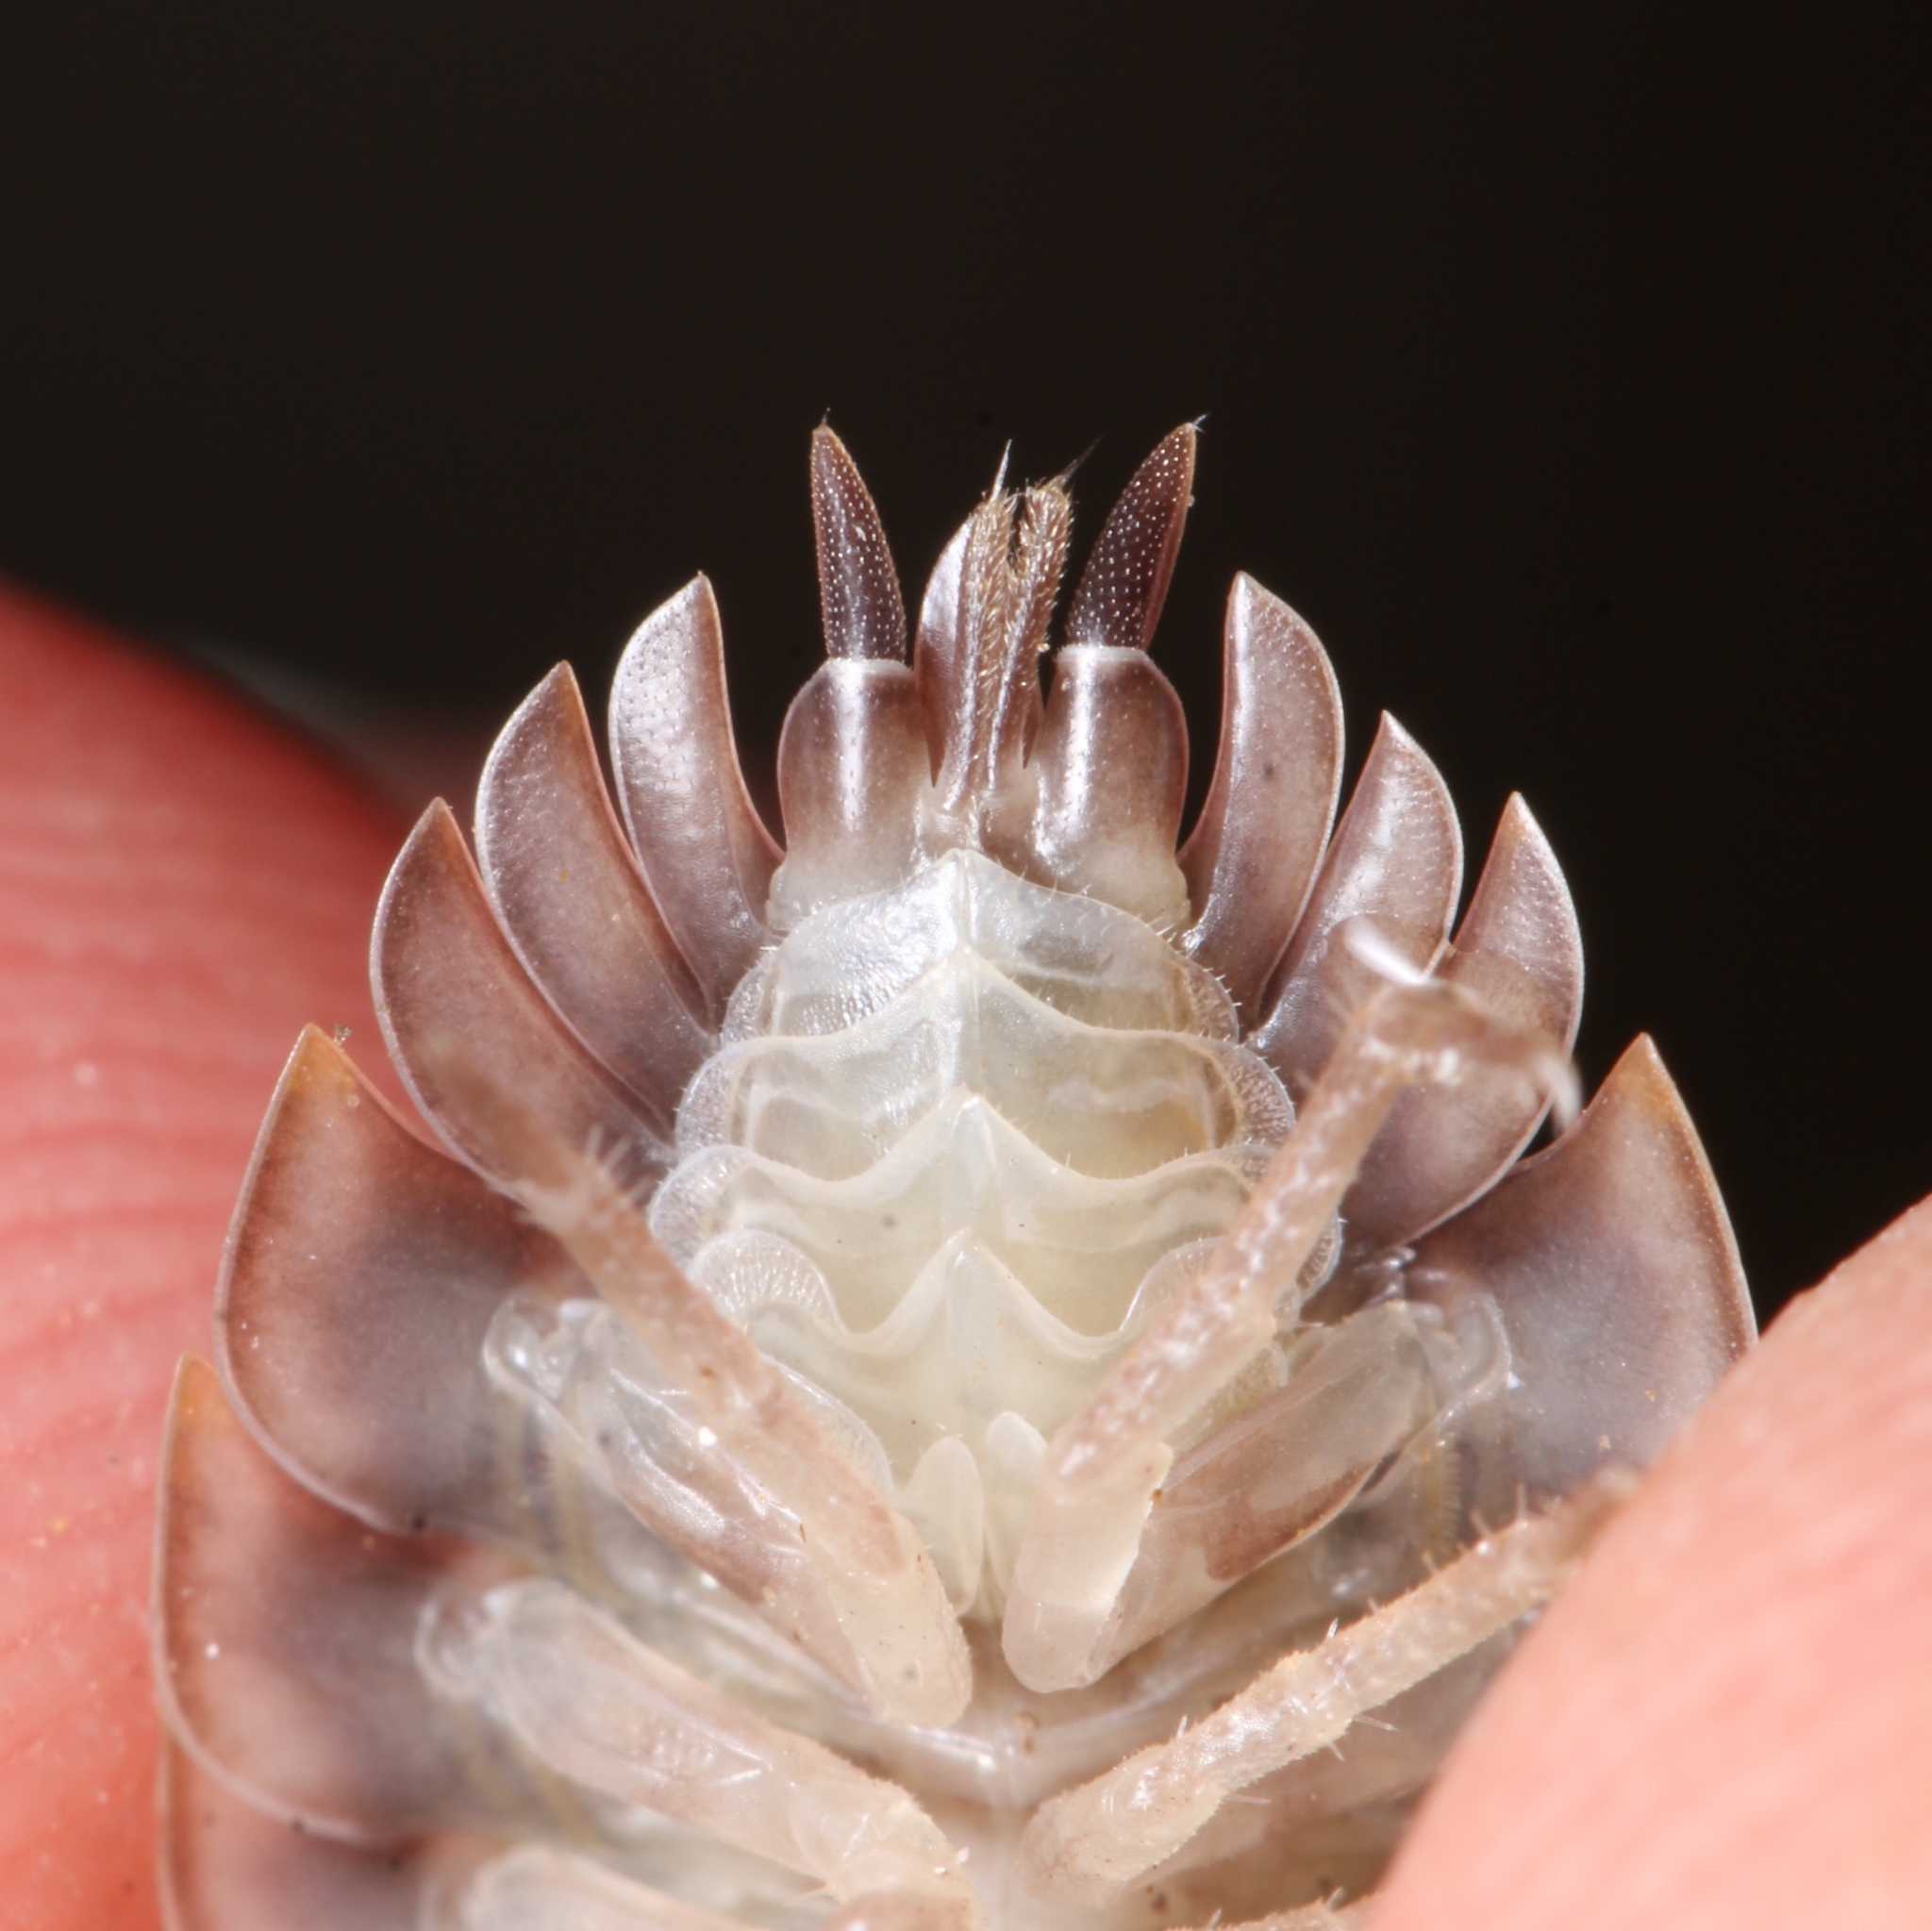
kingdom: Animalia
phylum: Arthropoda
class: Malacostraca
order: Isopoda
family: Oniscidae
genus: Oniscus
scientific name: Oniscus asellus
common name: Common shiny woodlouse
